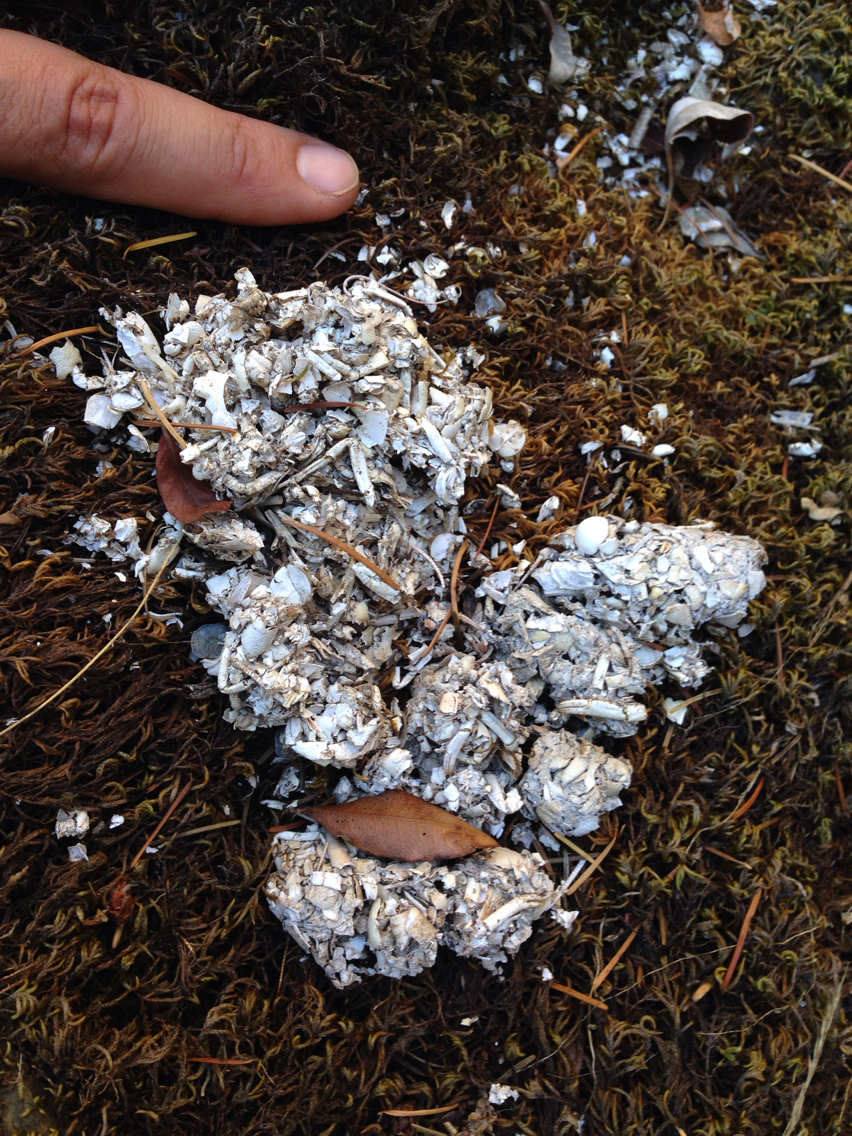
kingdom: Animalia
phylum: Chordata
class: Mammalia
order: Carnivora
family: Mustelidae
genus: Lontra
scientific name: Lontra canadensis
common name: North american river otter
